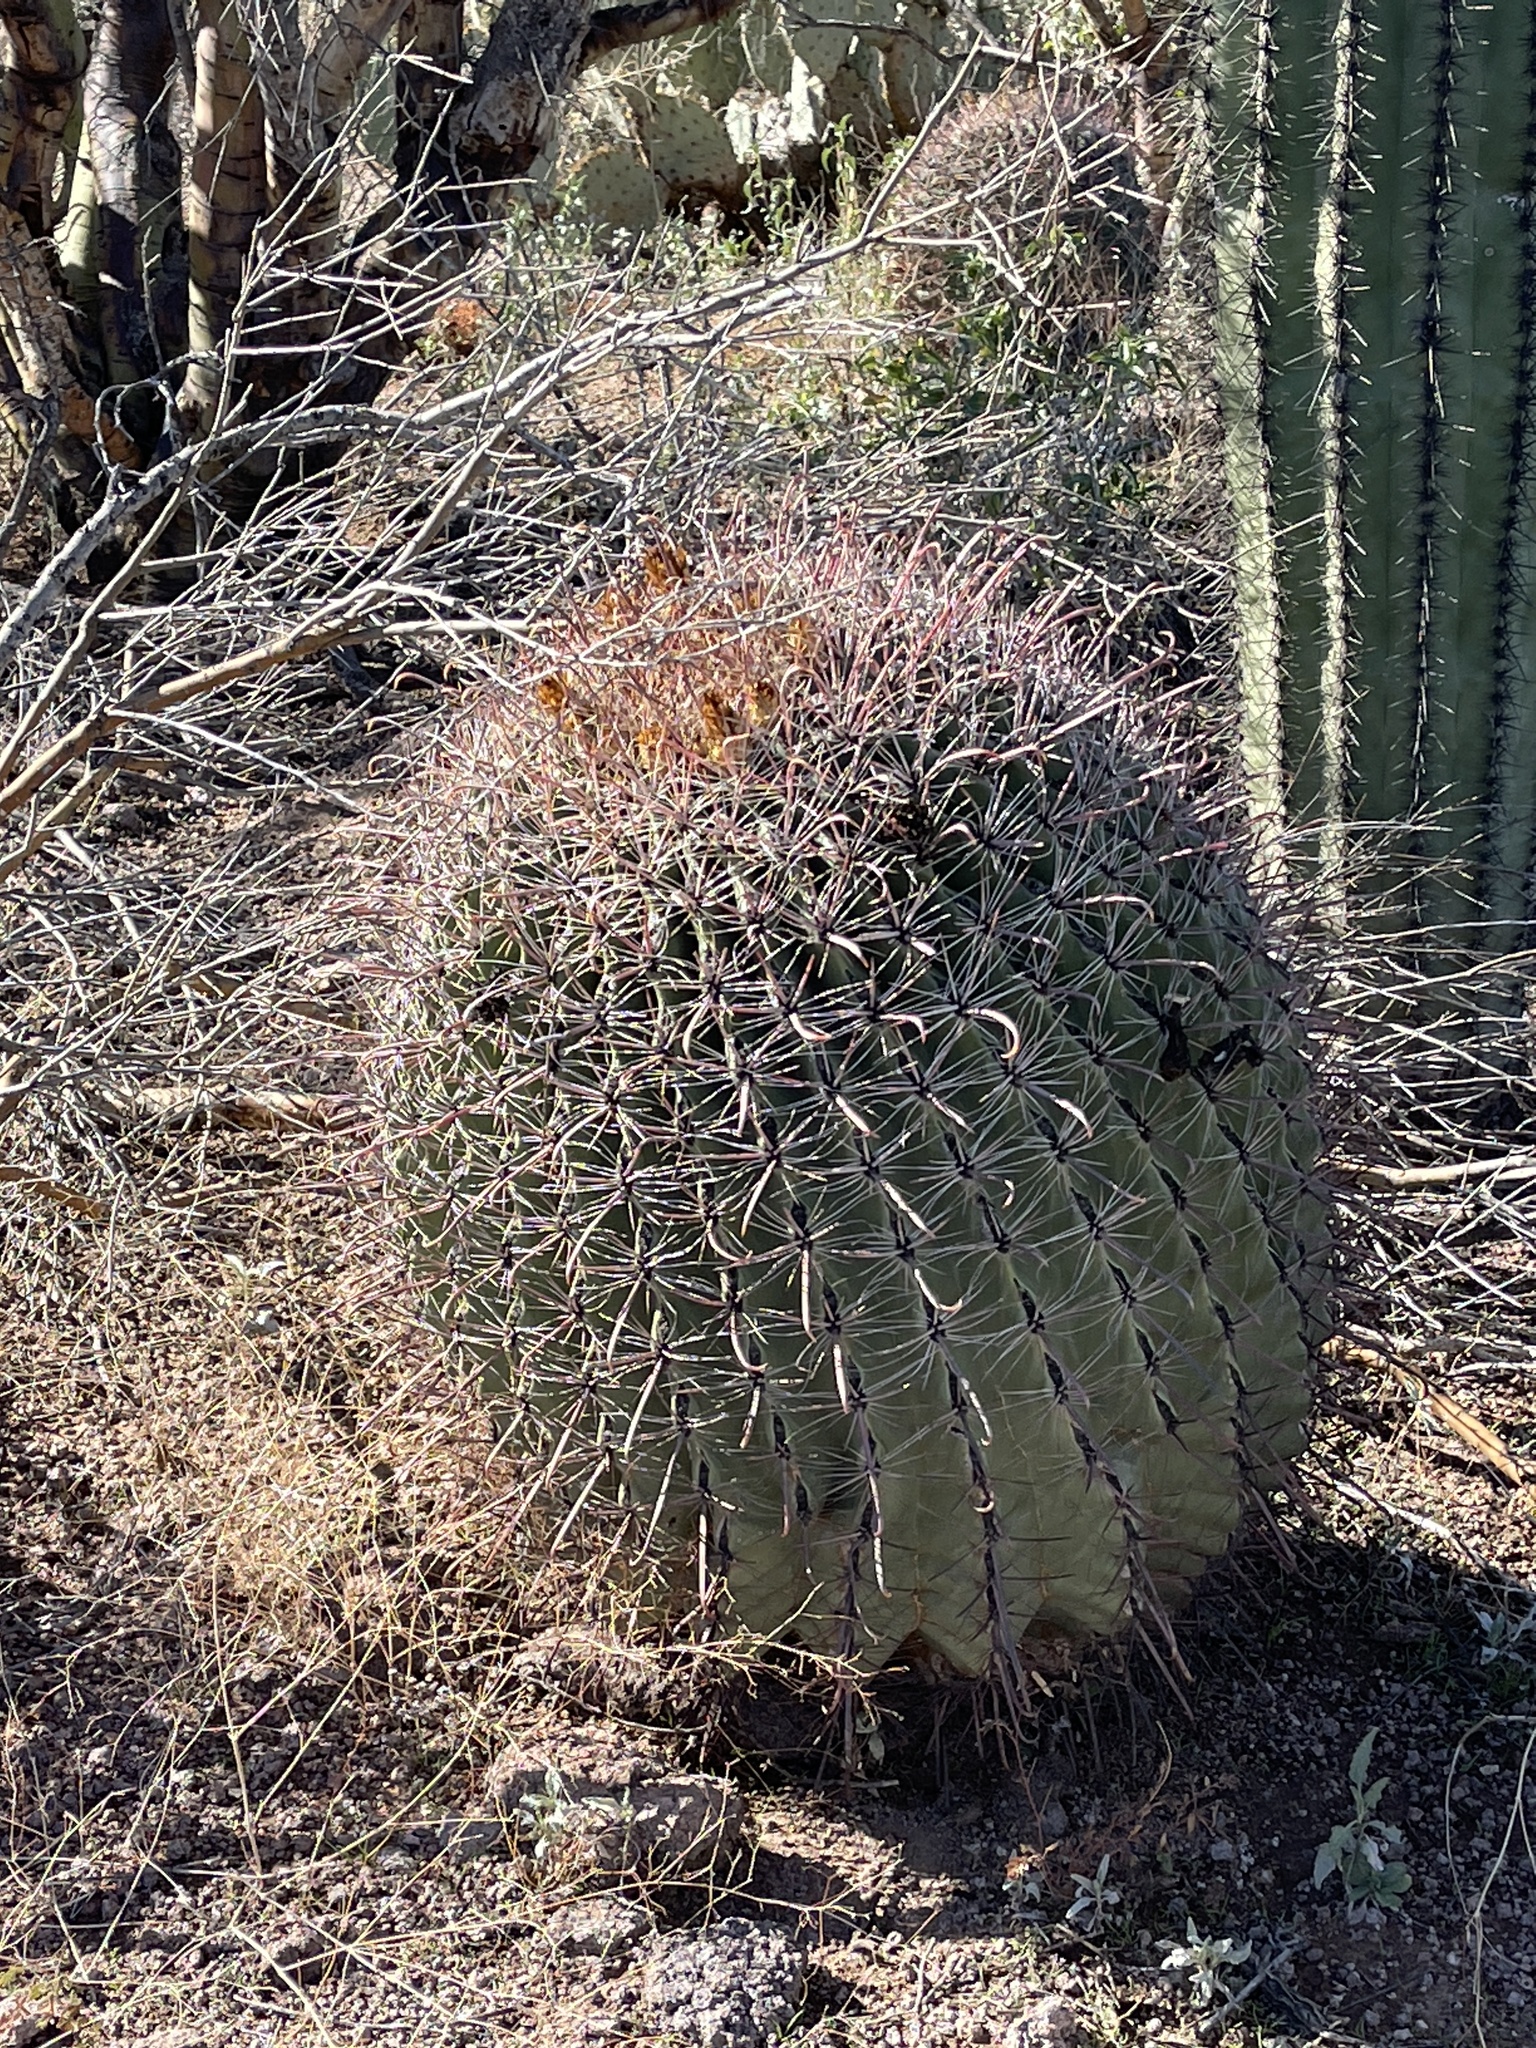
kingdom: Plantae
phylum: Tracheophyta
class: Magnoliopsida
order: Caryophyllales
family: Cactaceae
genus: Ferocactus
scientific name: Ferocactus wislizeni
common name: Candy barrel cactus
